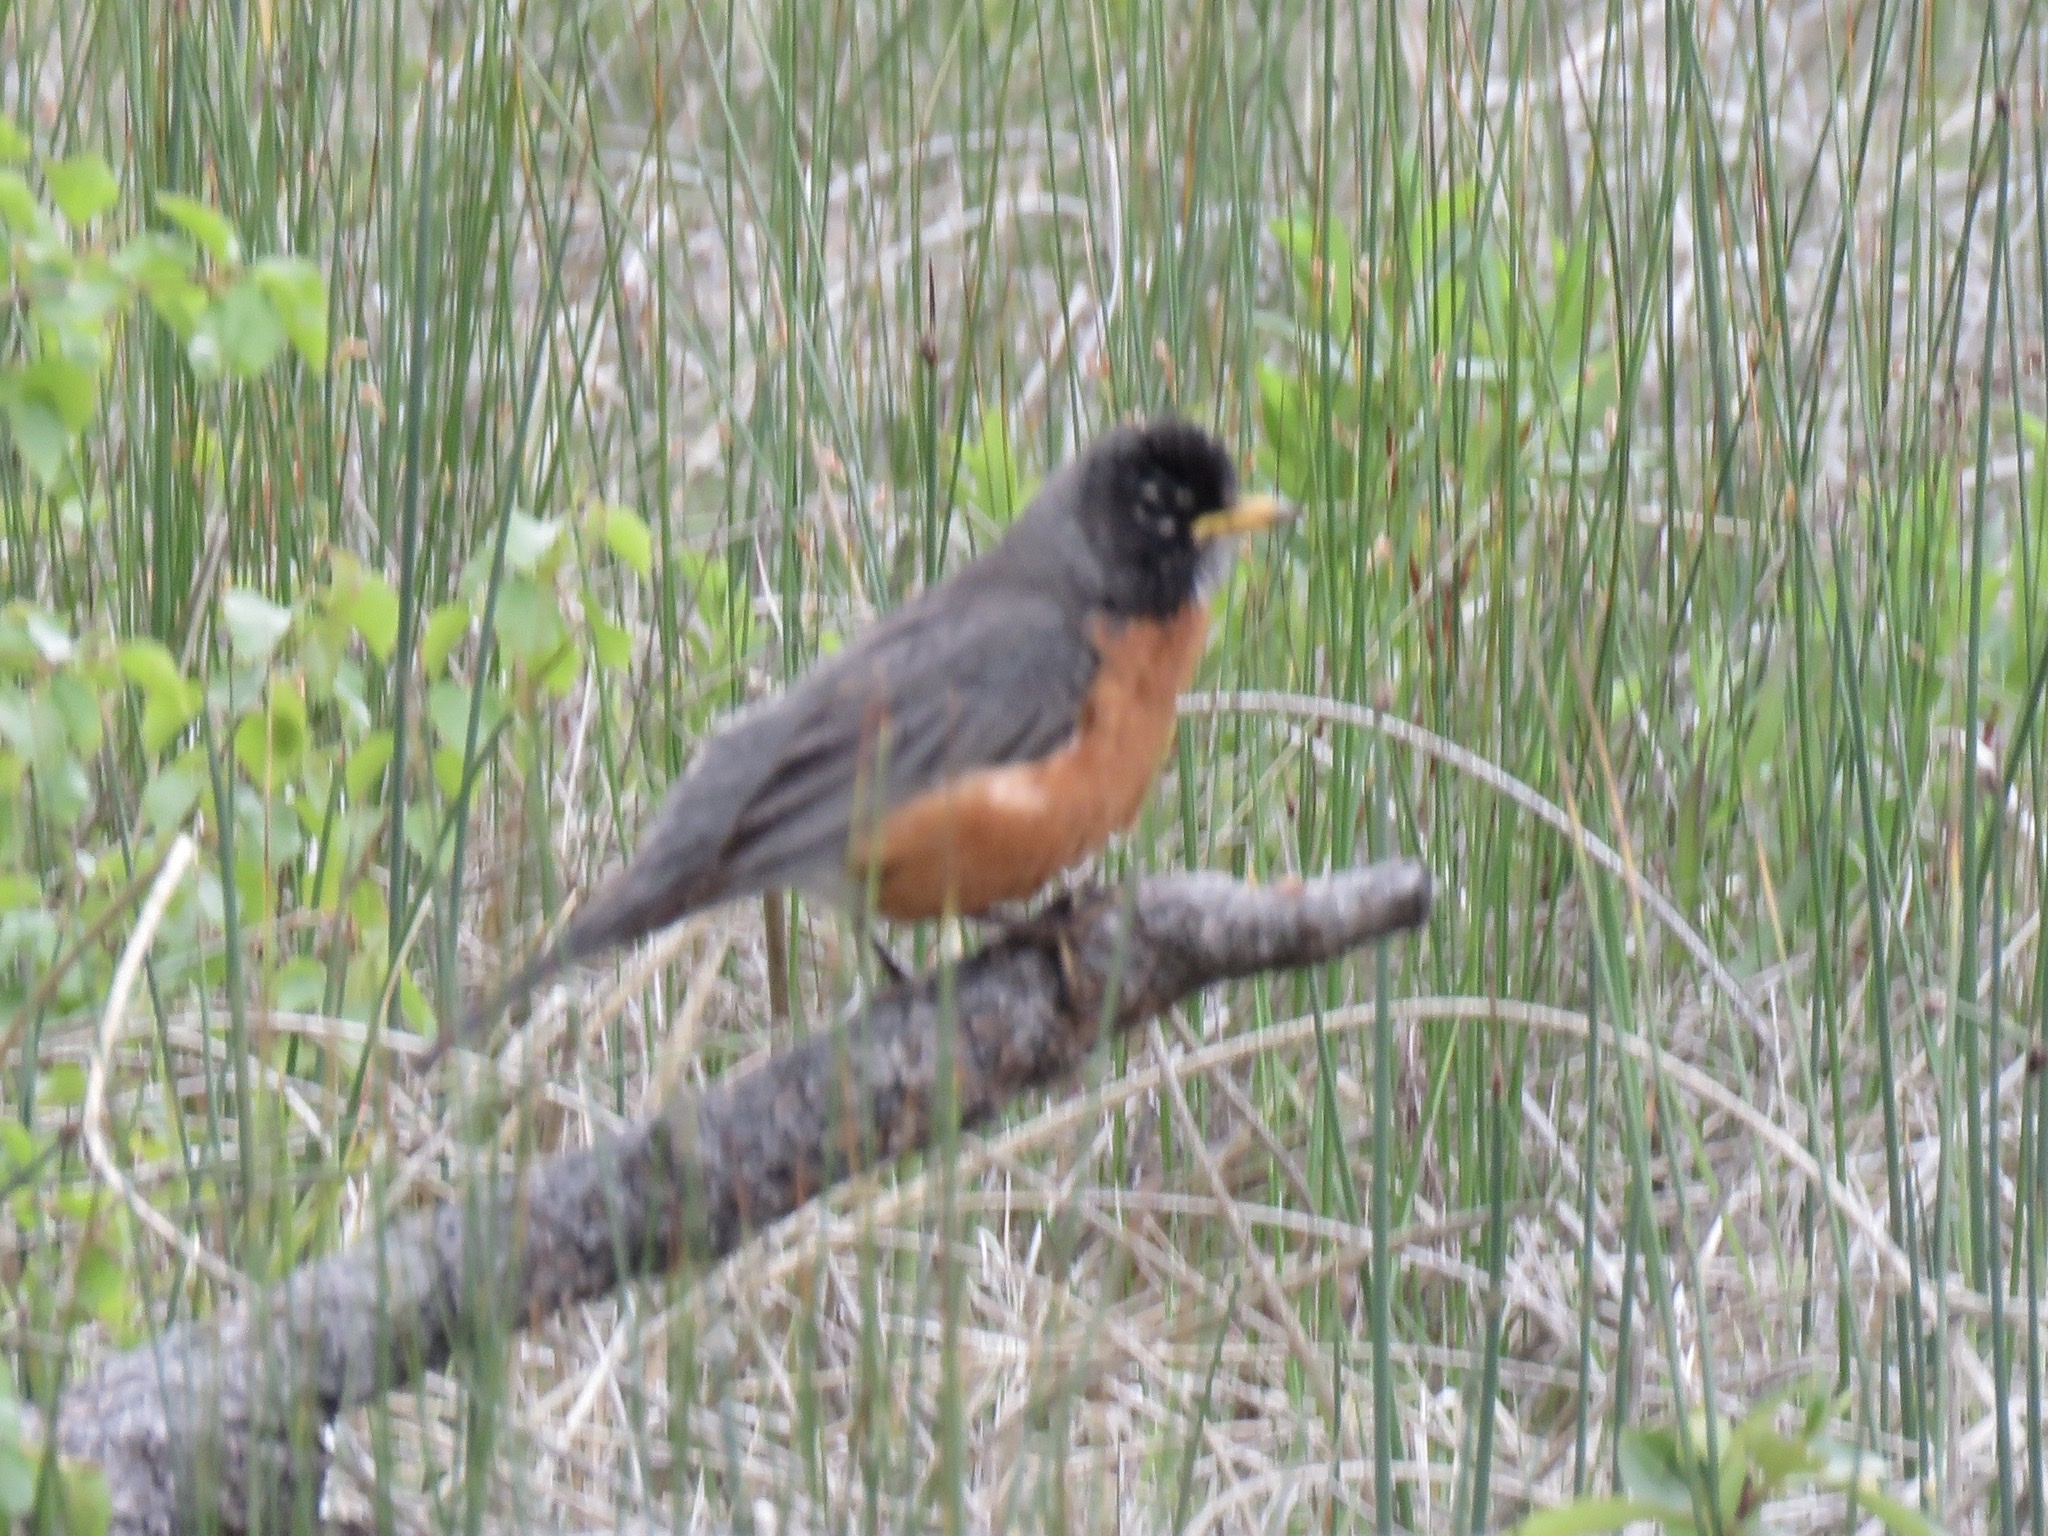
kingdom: Animalia
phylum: Chordata
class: Aves
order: Passeriformes
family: Turdidae
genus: Turdus
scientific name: Turdus migratorius
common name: American robin
